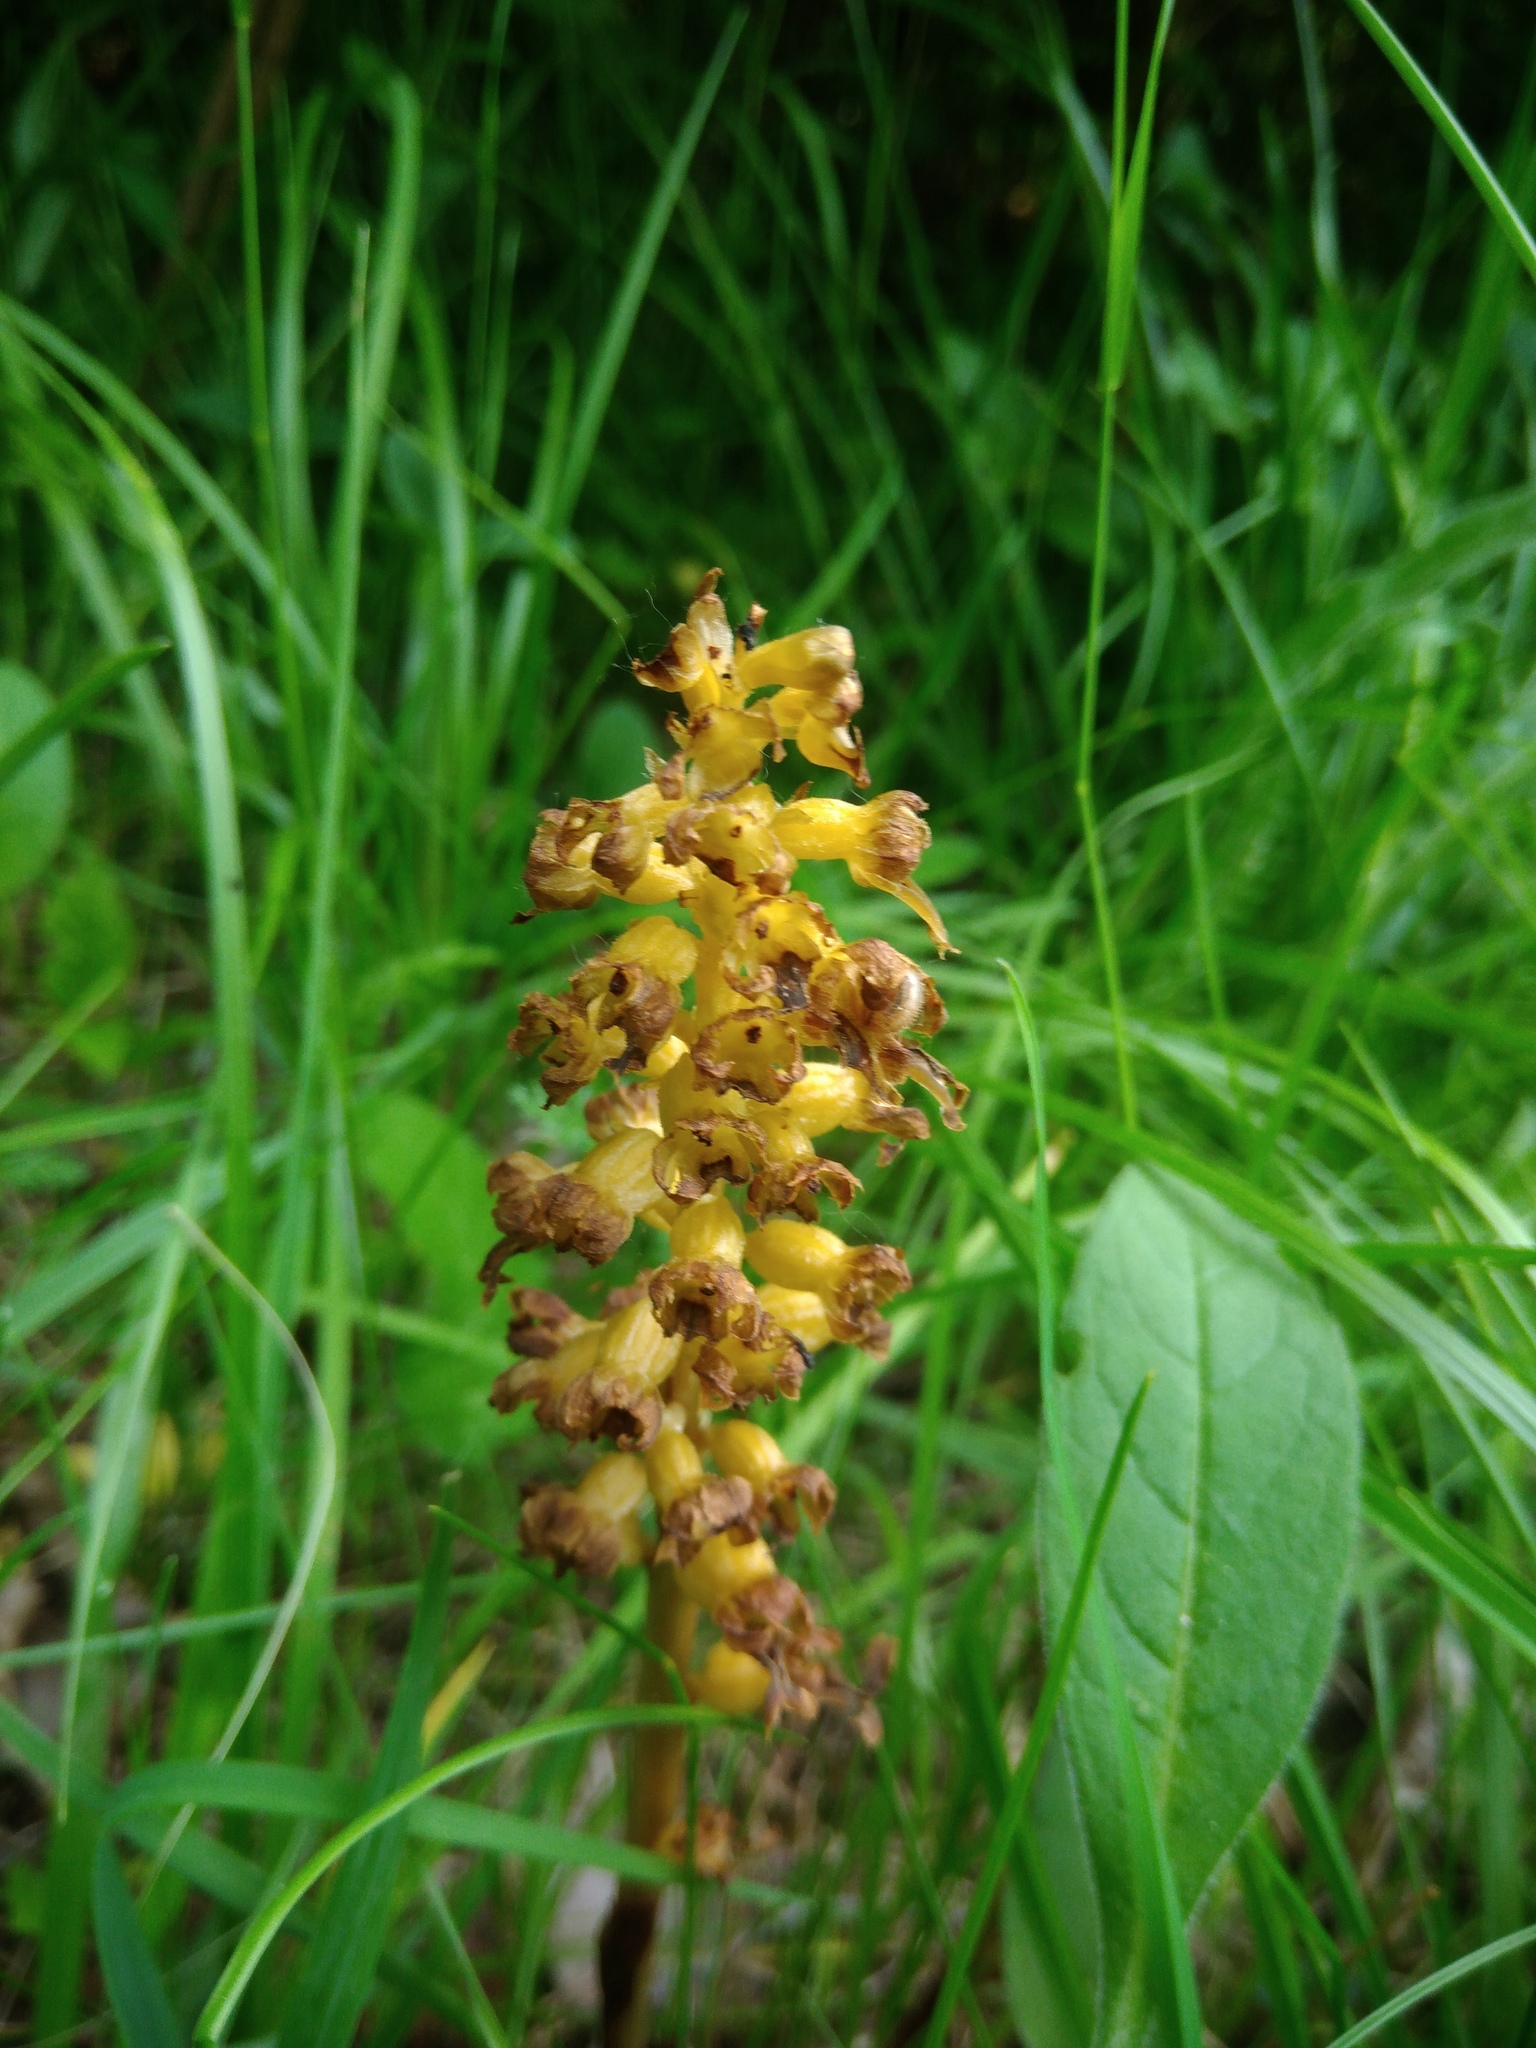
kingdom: Plantae
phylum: Tracheophyta
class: Liliopsida
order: Asparagales
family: Orchidaceae
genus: Neottia
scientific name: Neottia nidus-avis
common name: Bird's-nest orchid
